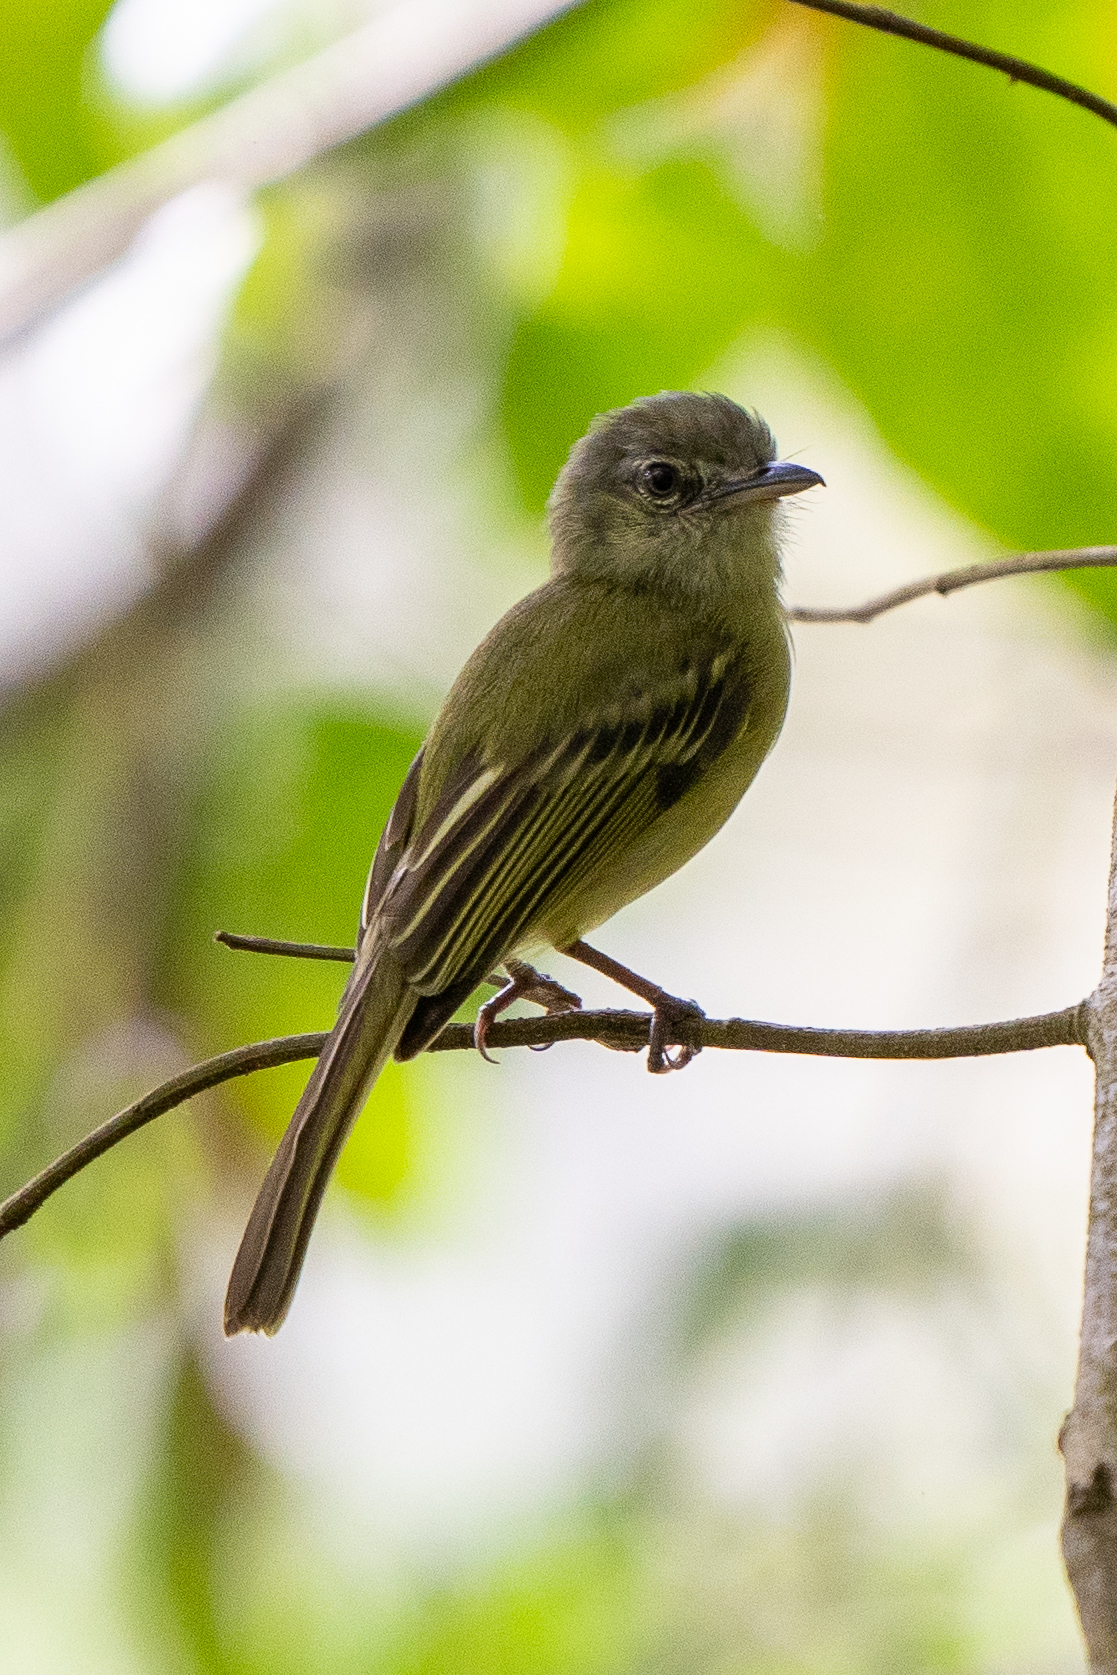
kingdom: Animalia
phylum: Chordata
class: Aves
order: Passeriformes
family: Tyrannidae
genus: Tolmomyias
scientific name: Tolmomyias sulphurescens
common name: Yellow-olive flycatcher
